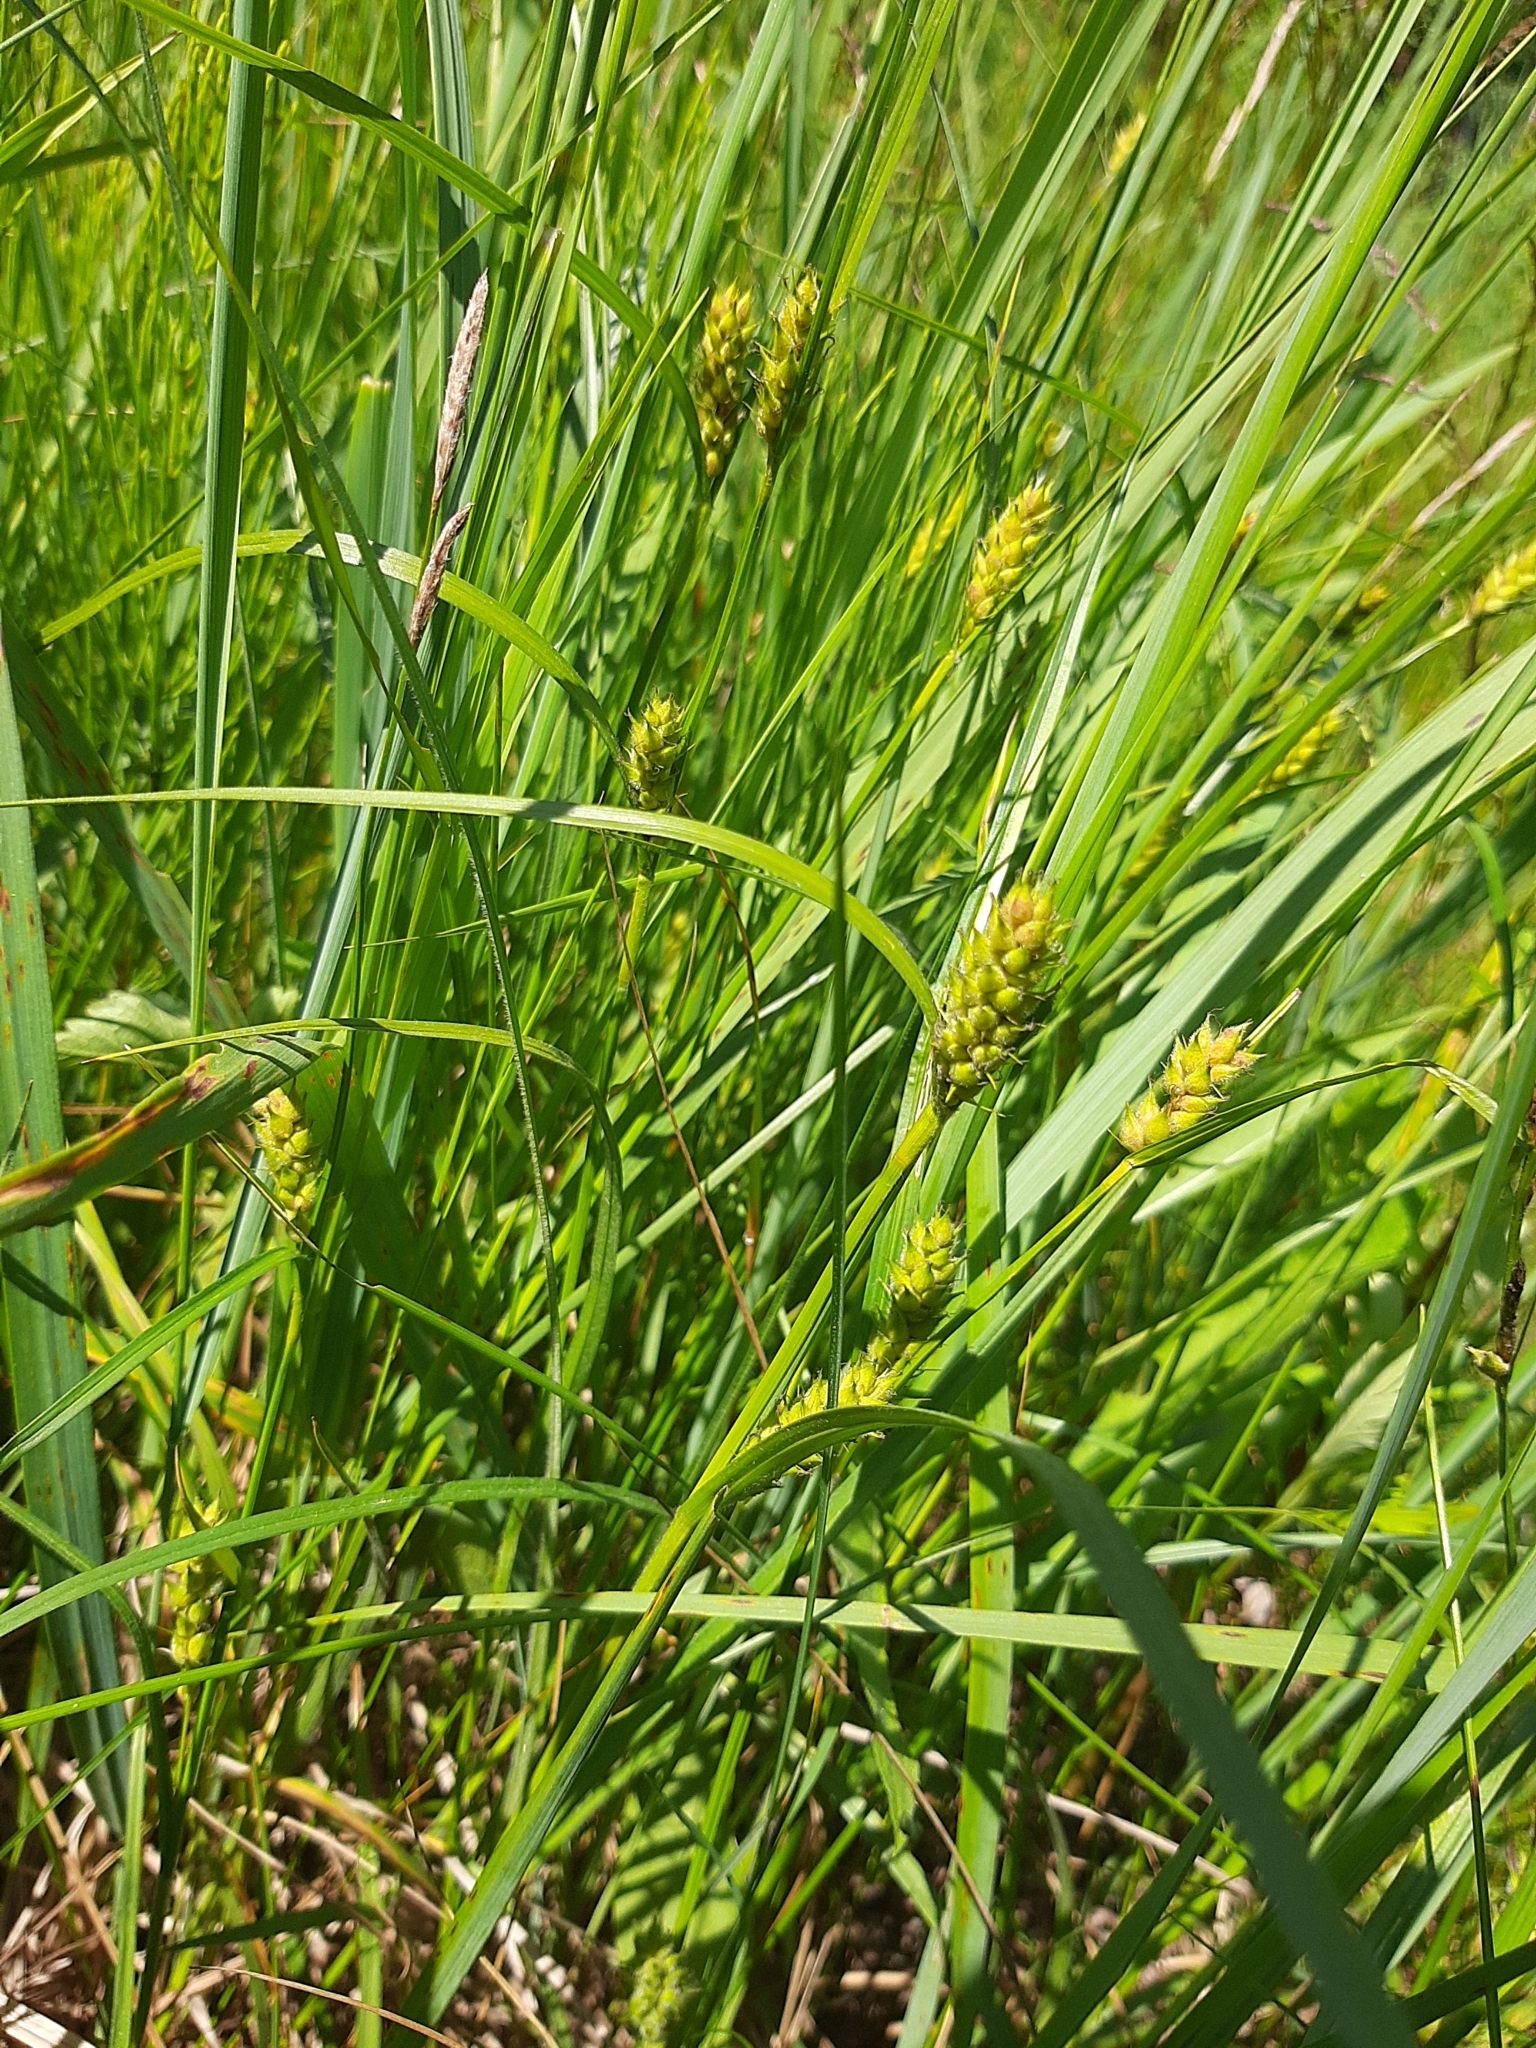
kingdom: Plantae
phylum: Tracheophyta
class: Liliopsida
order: Poales
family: Cyperaceae
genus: Carex
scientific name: Carex hirta
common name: Hairy sedge
